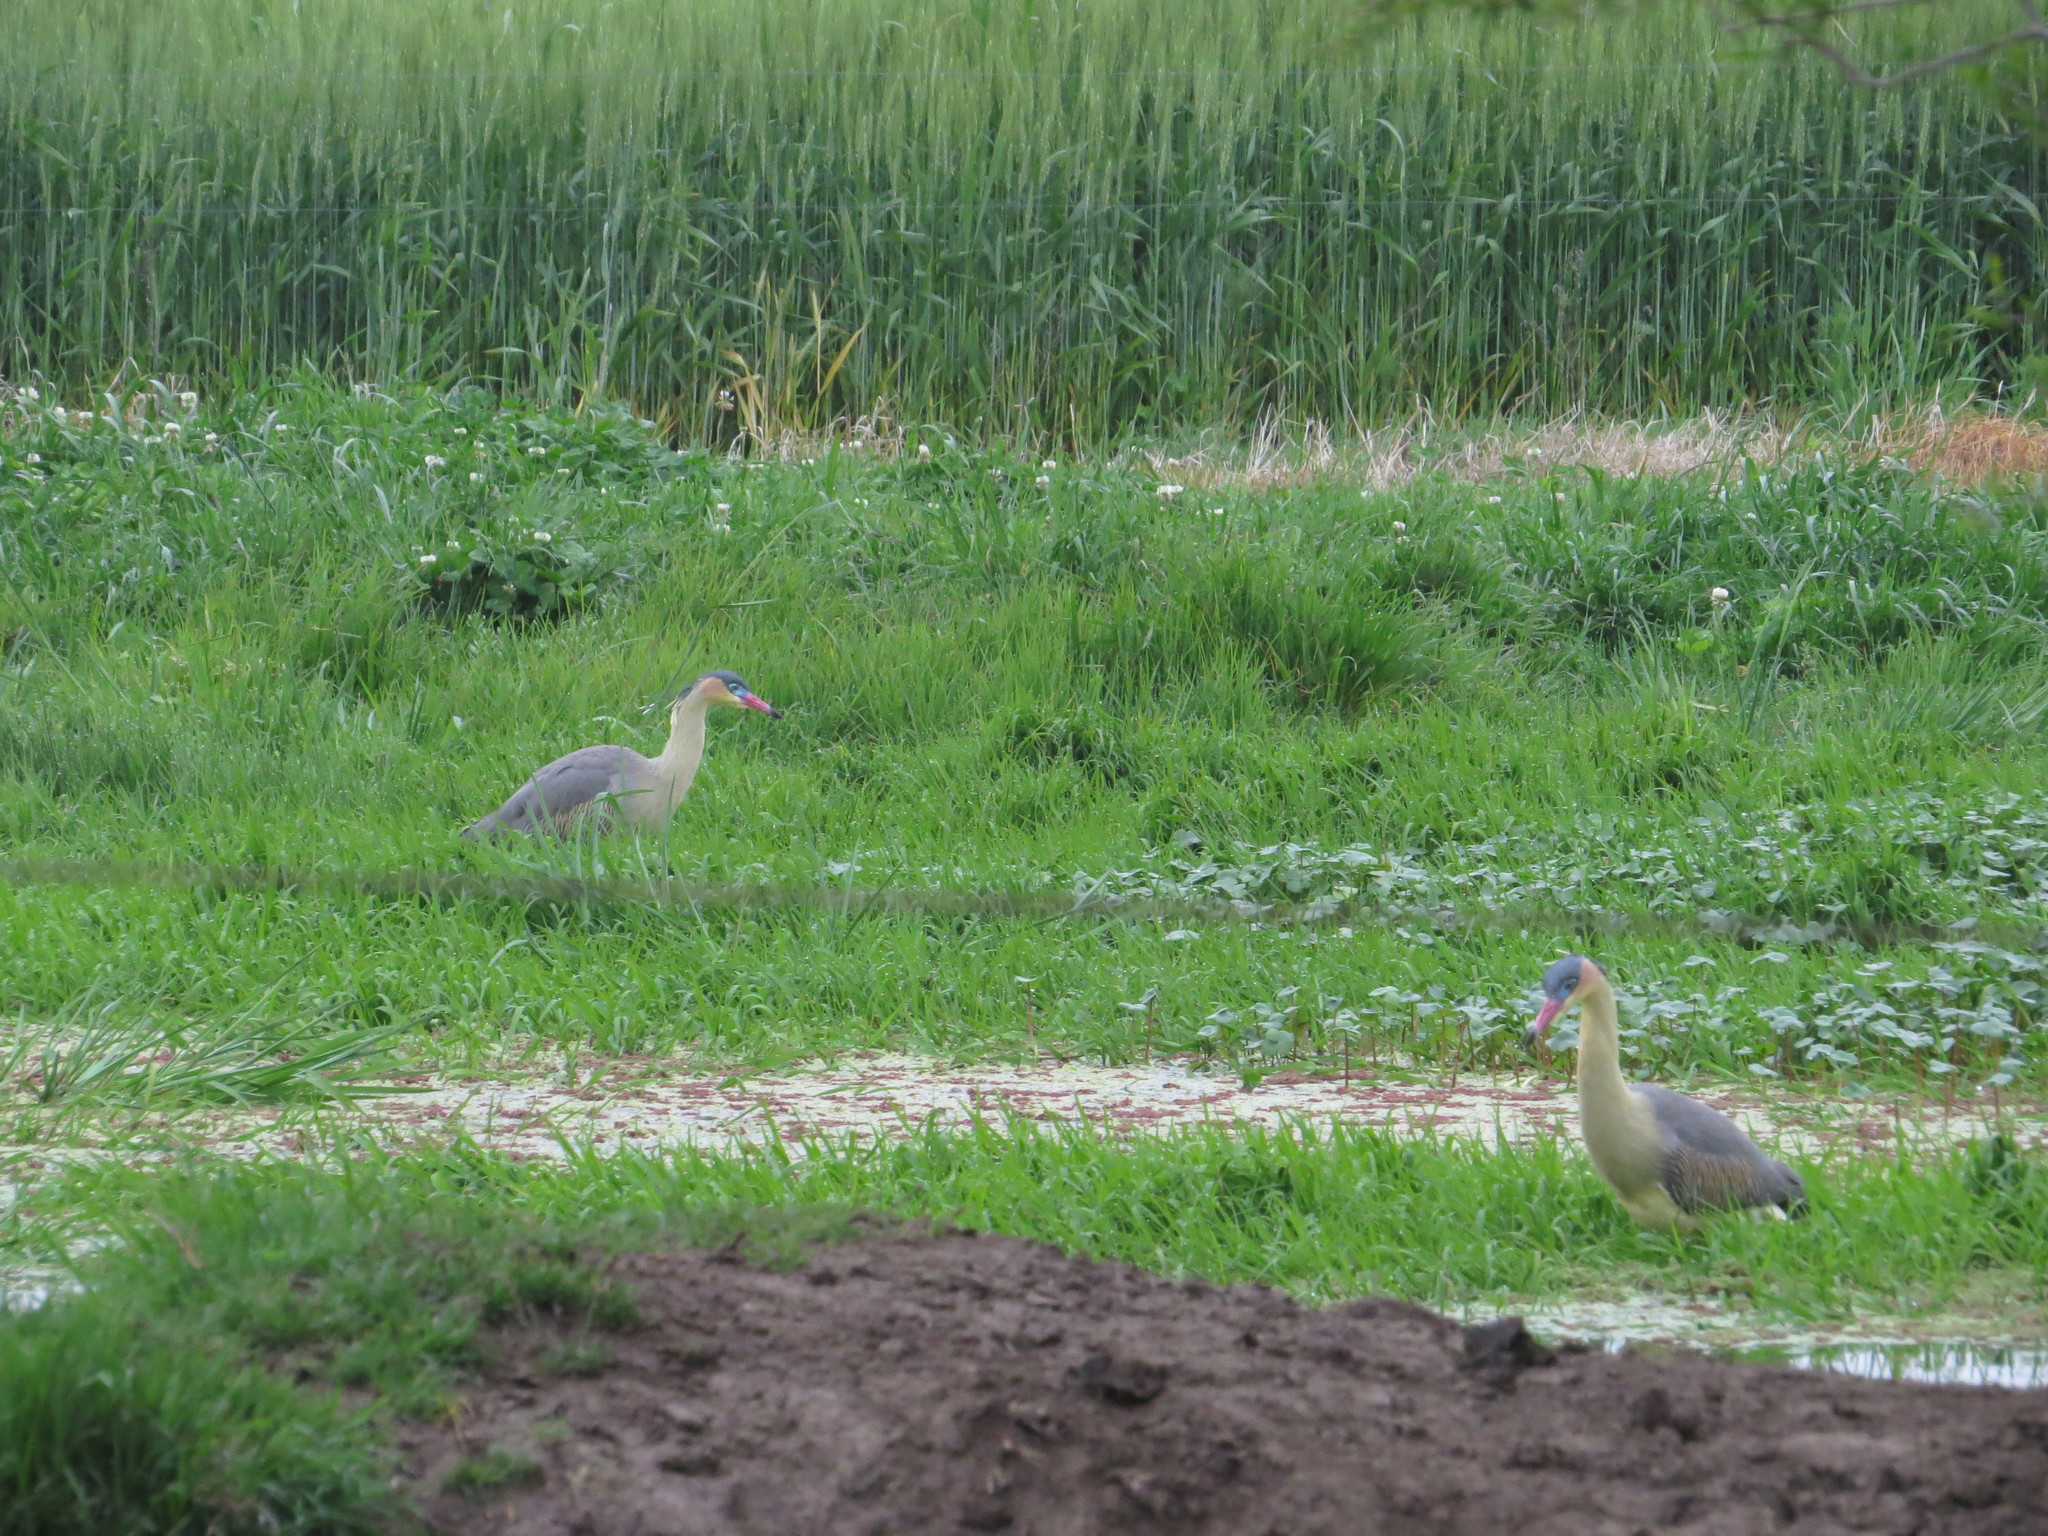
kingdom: Animalia
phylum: Chordata
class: Aves
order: Pelecaniformes
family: Ardeidae
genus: Syrigma
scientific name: Syrigma sibilatrix
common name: Whistling heron
